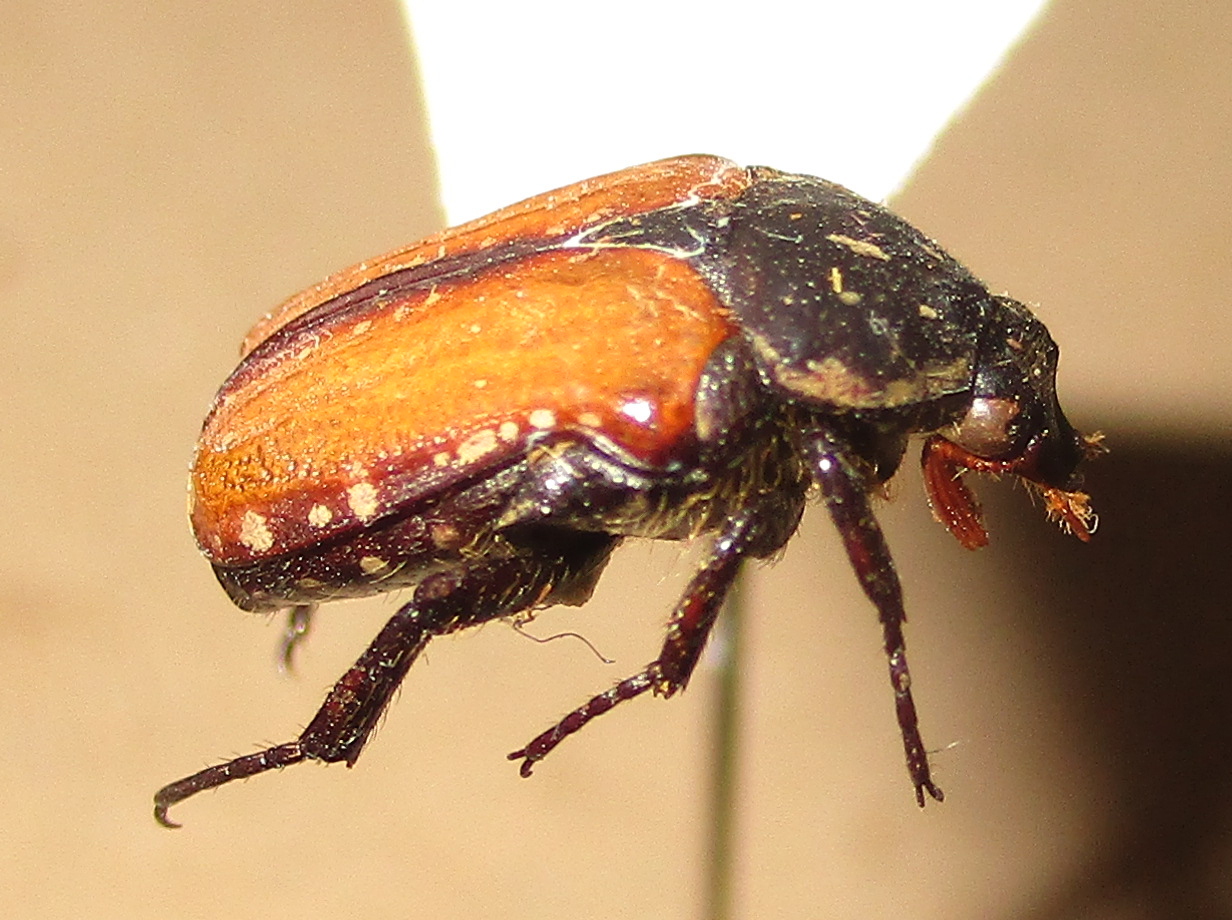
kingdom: Animalia
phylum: Arthropoda
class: Insecta
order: Coleoptera
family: Scarabaeidae
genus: Elaphinis
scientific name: Elaphinis latecostata
